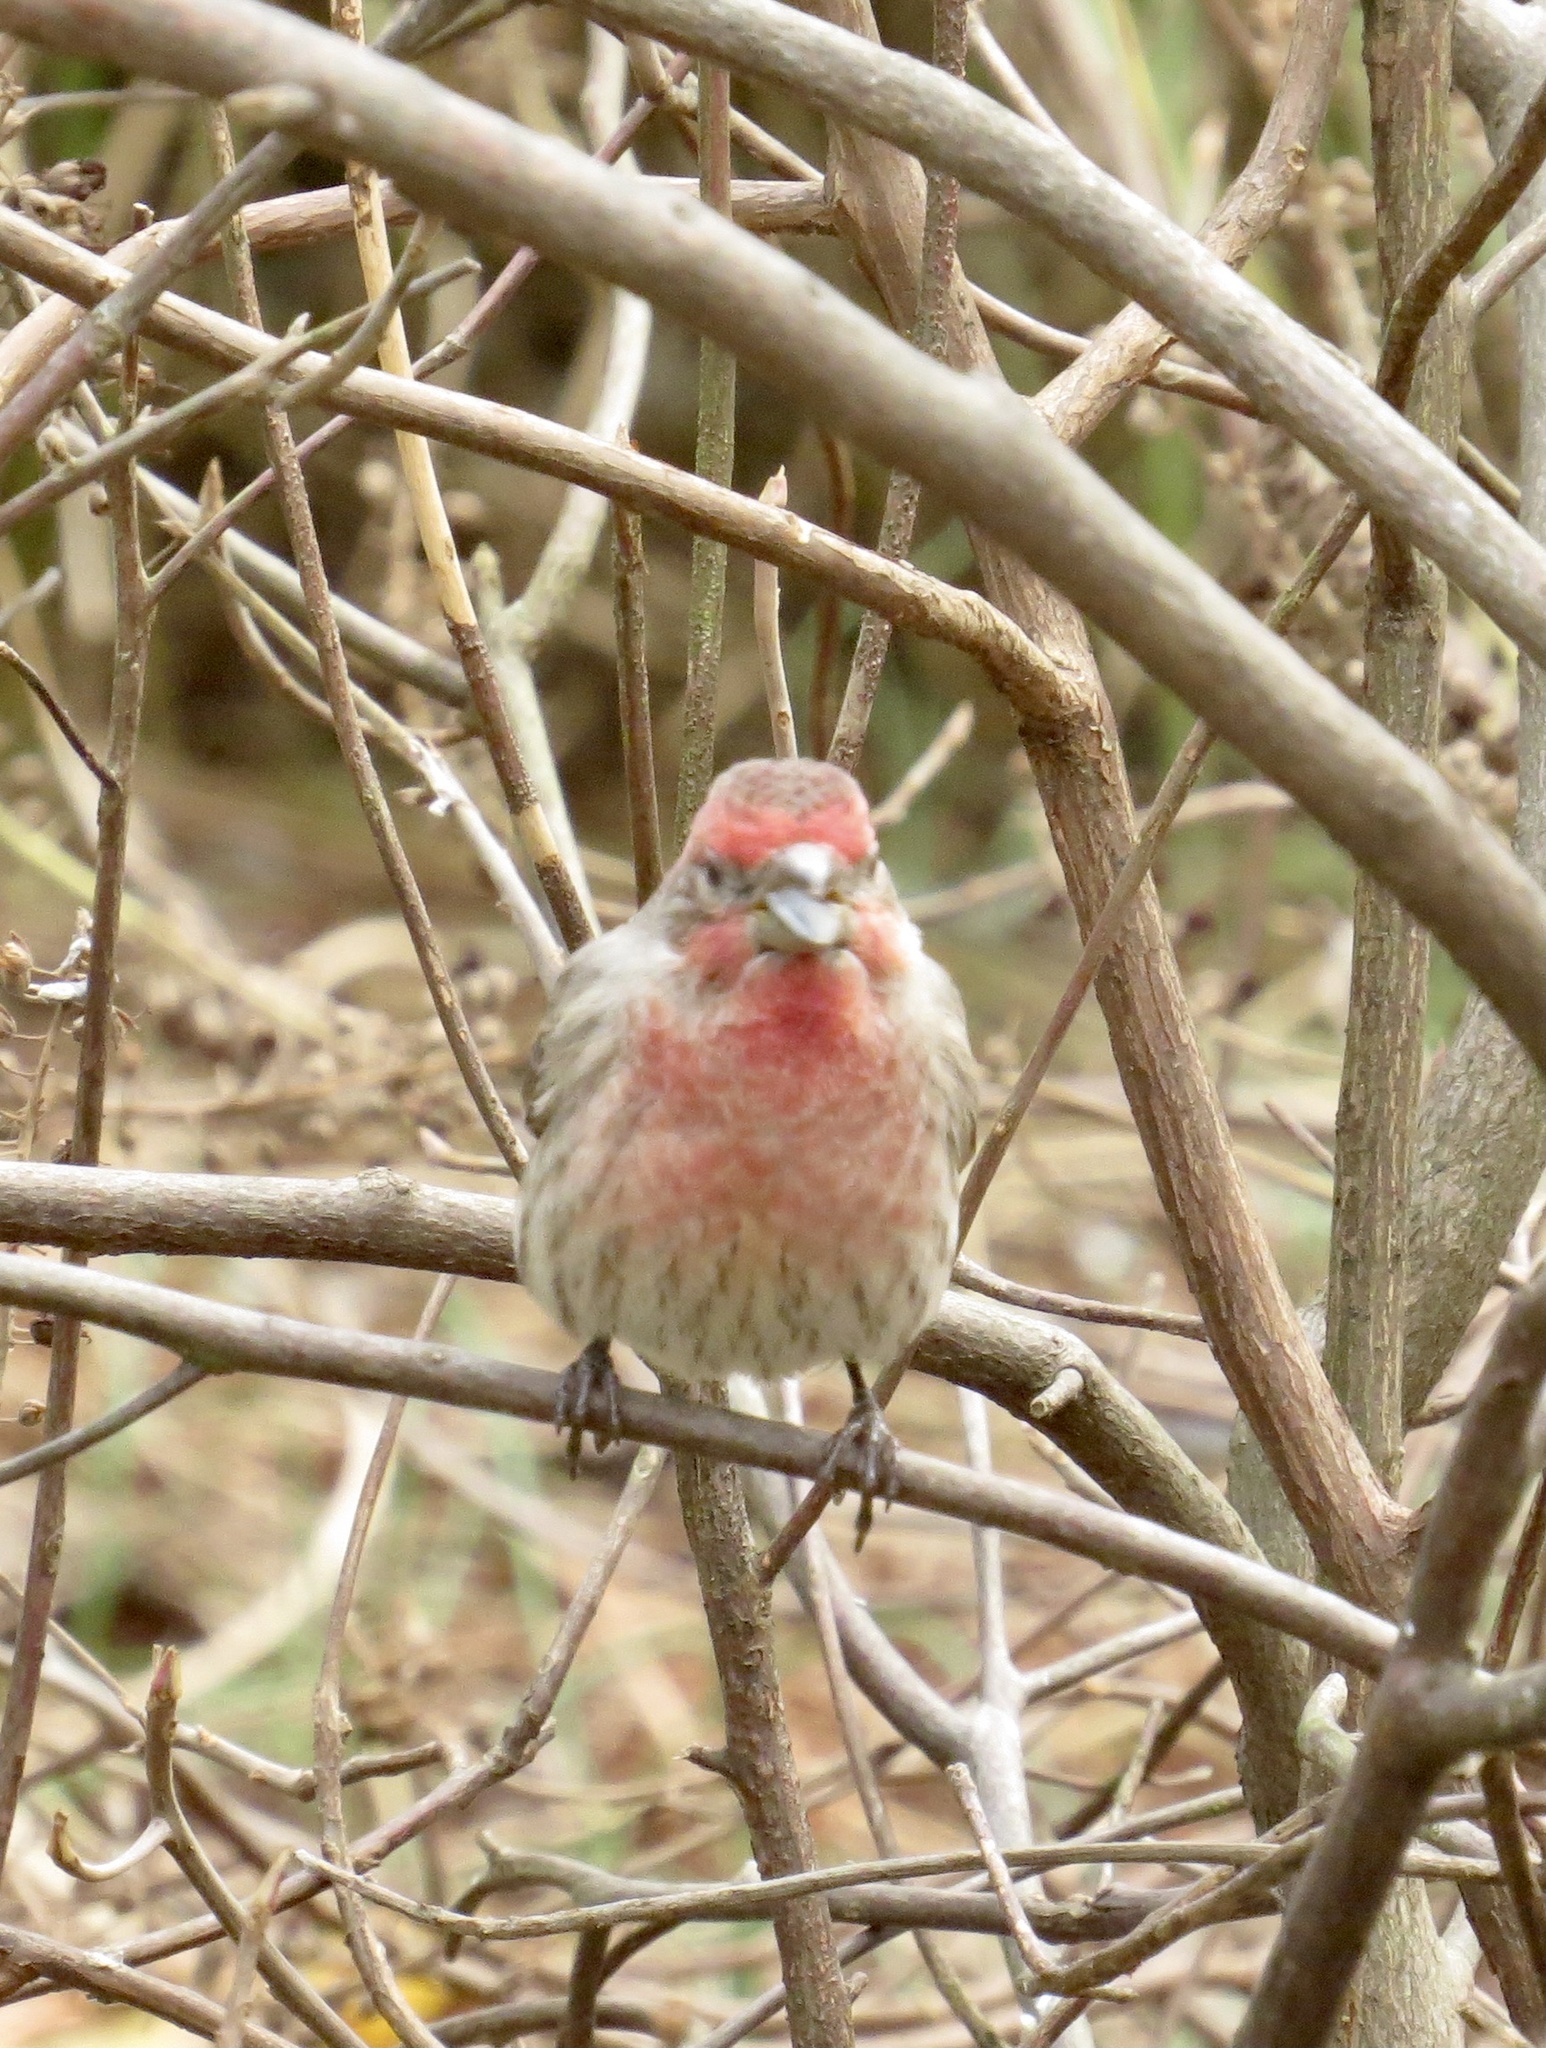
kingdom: Animalia
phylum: Chordata
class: Aves
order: Passeriformes
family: Fringillidae
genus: Haemorhous
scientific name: Haemorhous mexicanus
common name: House finch
